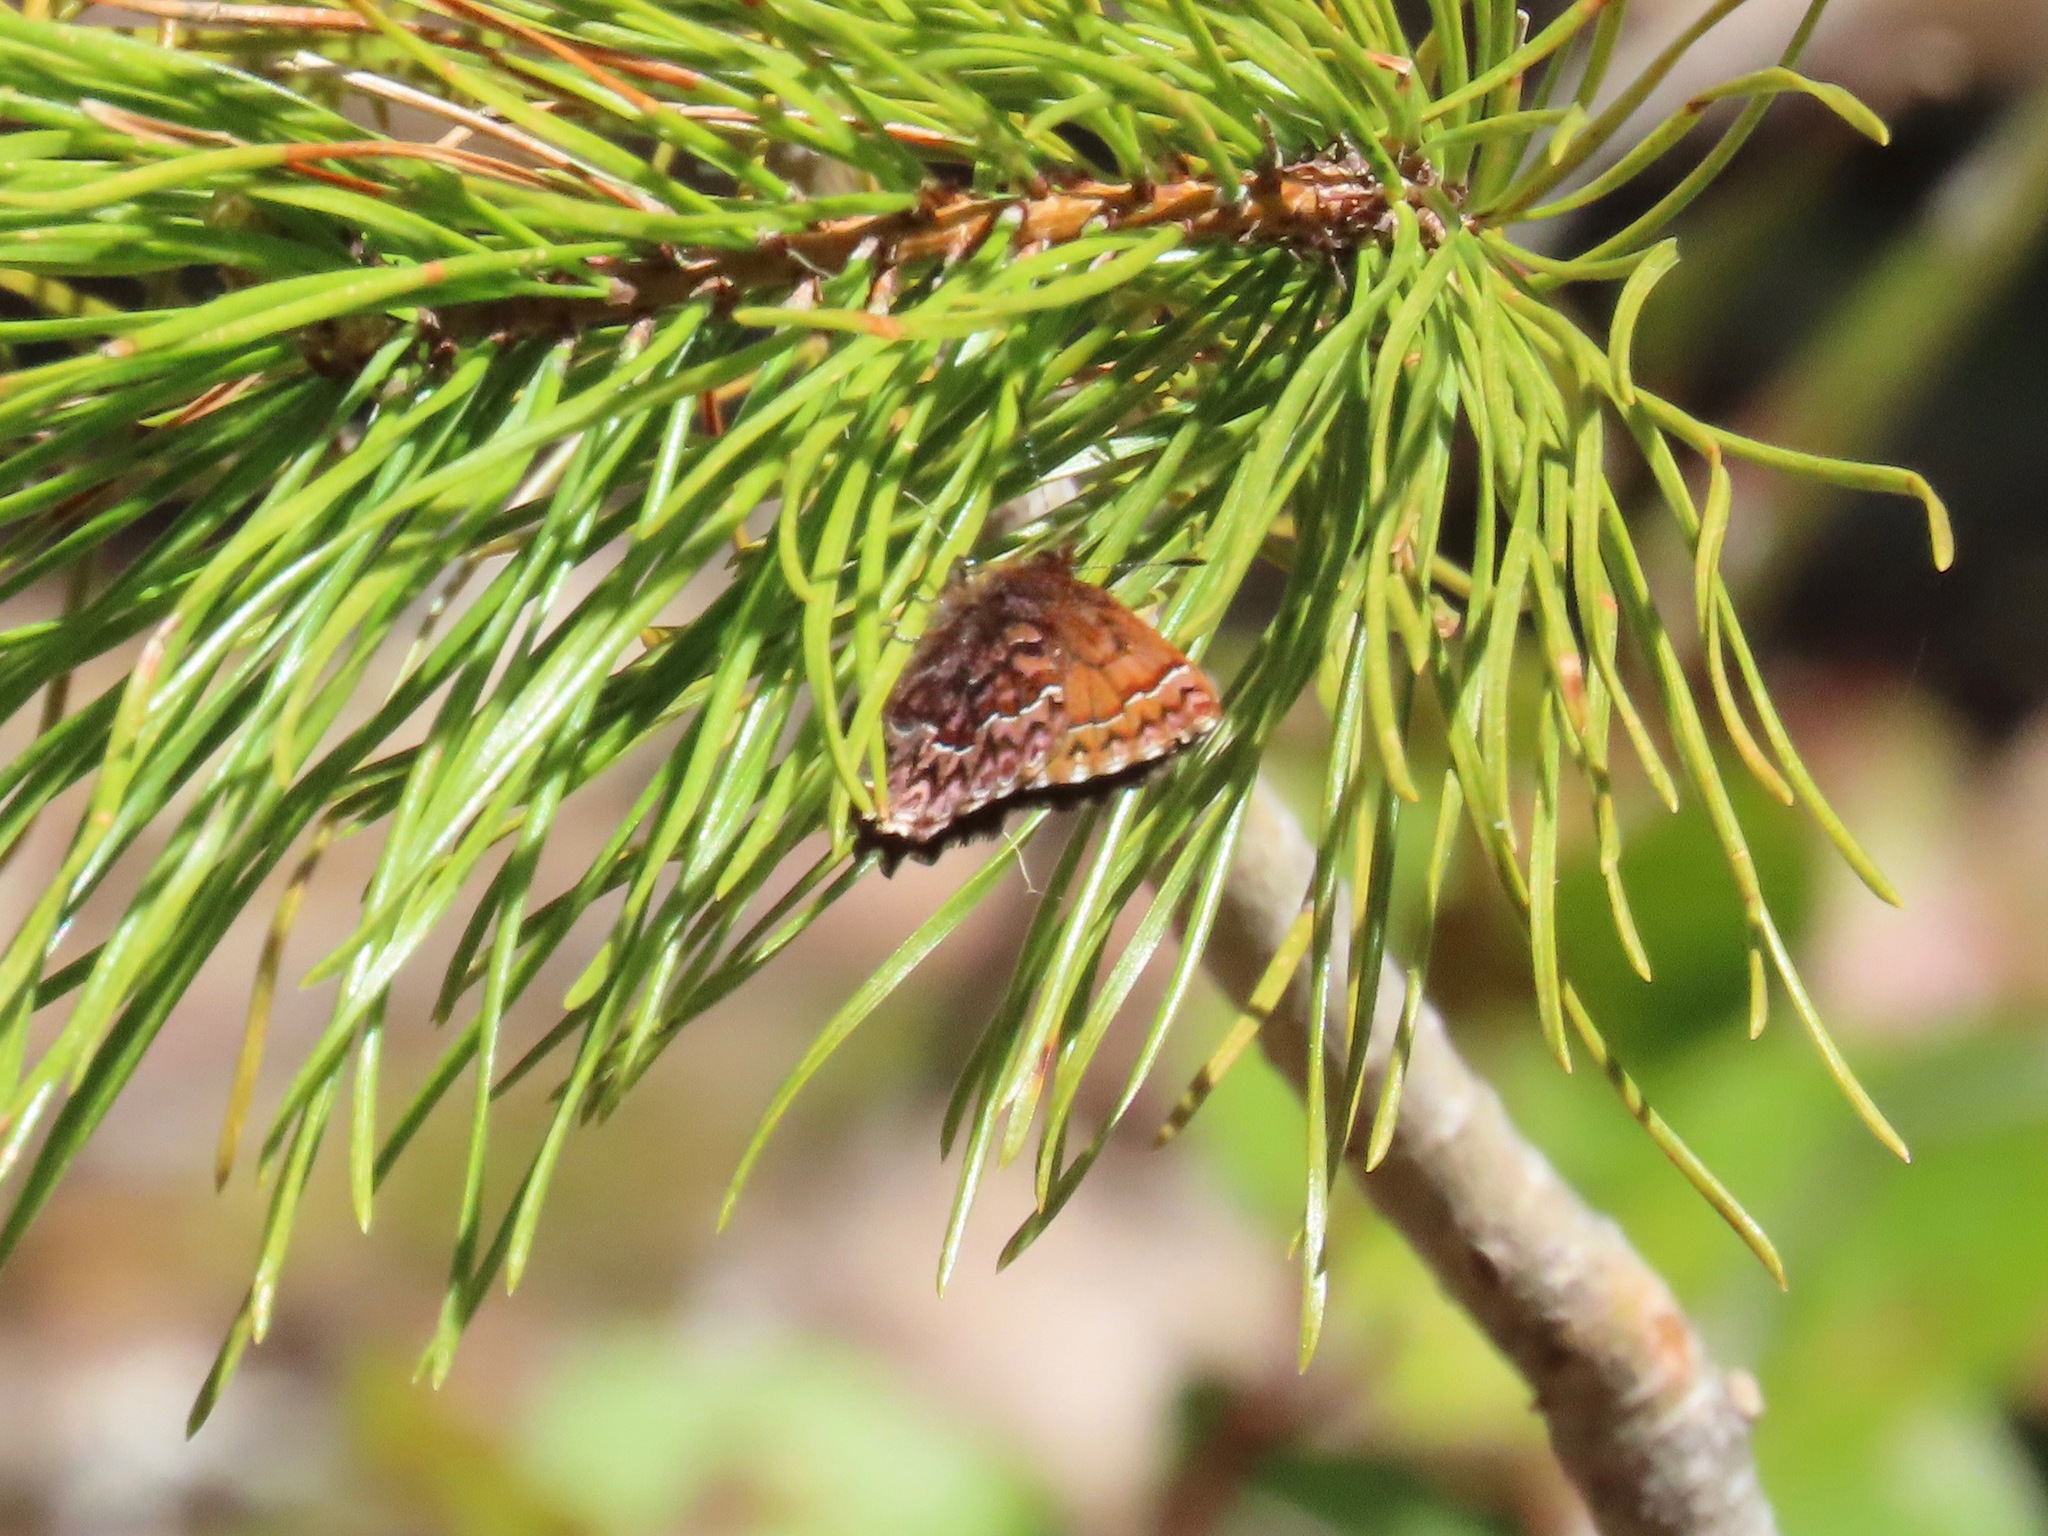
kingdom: Animalia
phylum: Arthropoda
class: Insecta
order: Lepidoptera
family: Lycaenidae
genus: Incisalia
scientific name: Incisalia eryphon
